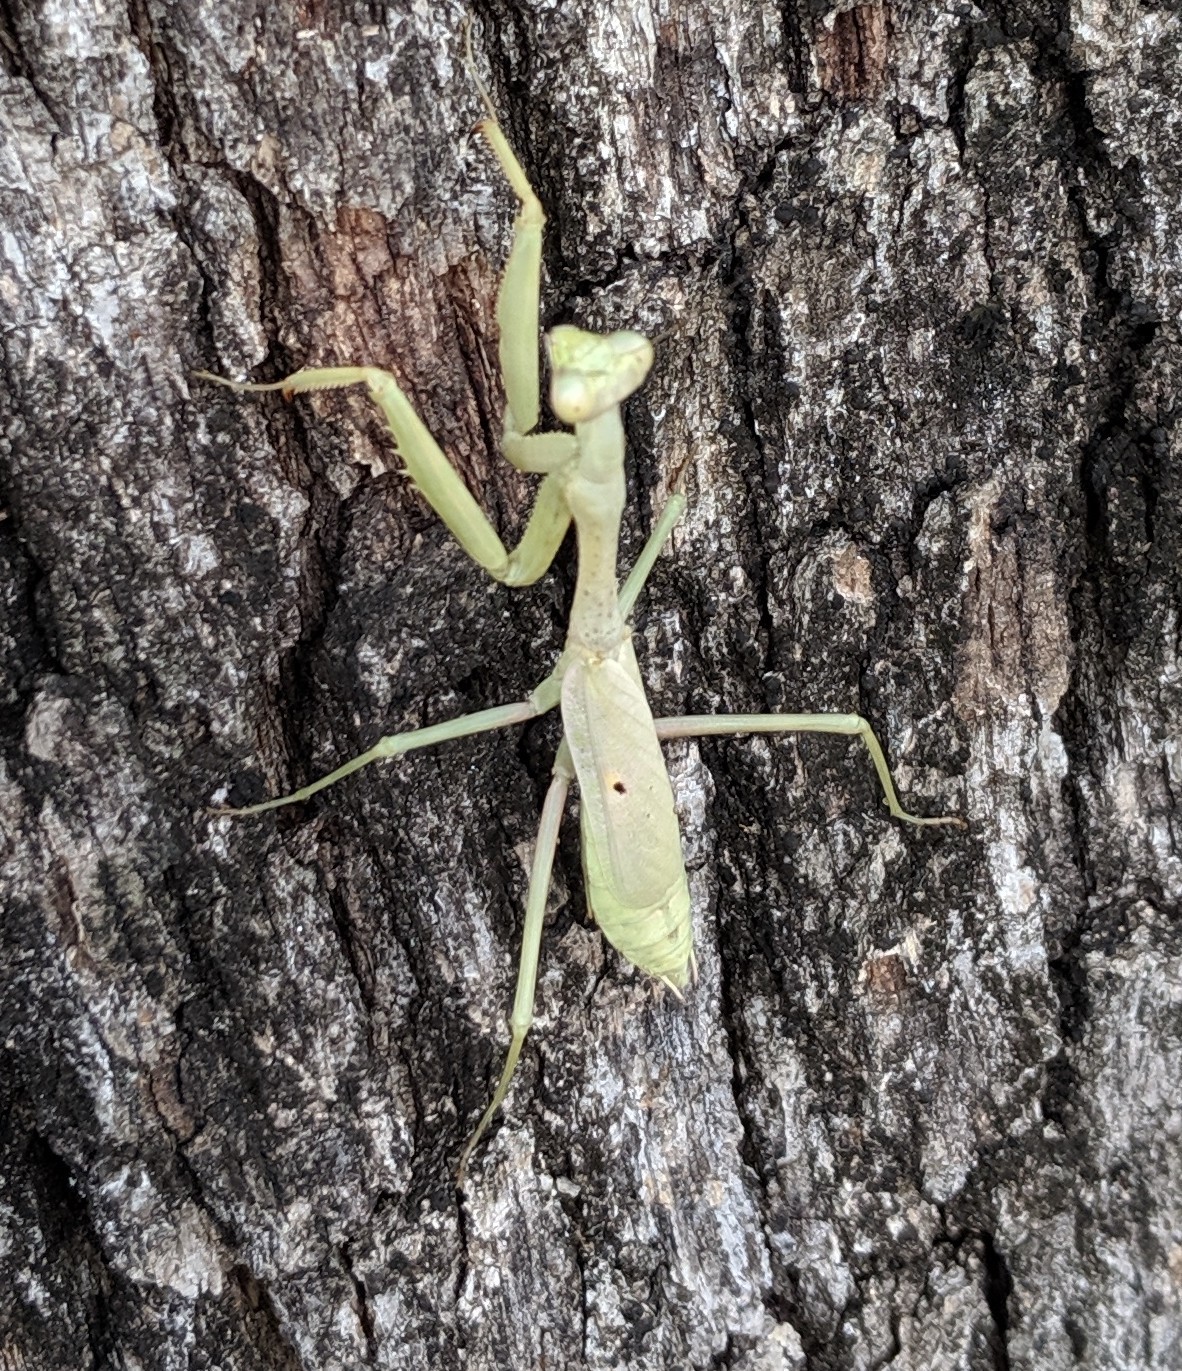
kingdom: Animalia
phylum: Arthropoda
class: Insecta
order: Mantodea
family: Mantidae
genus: Stagmomantis
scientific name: Stagmomantis carolina
